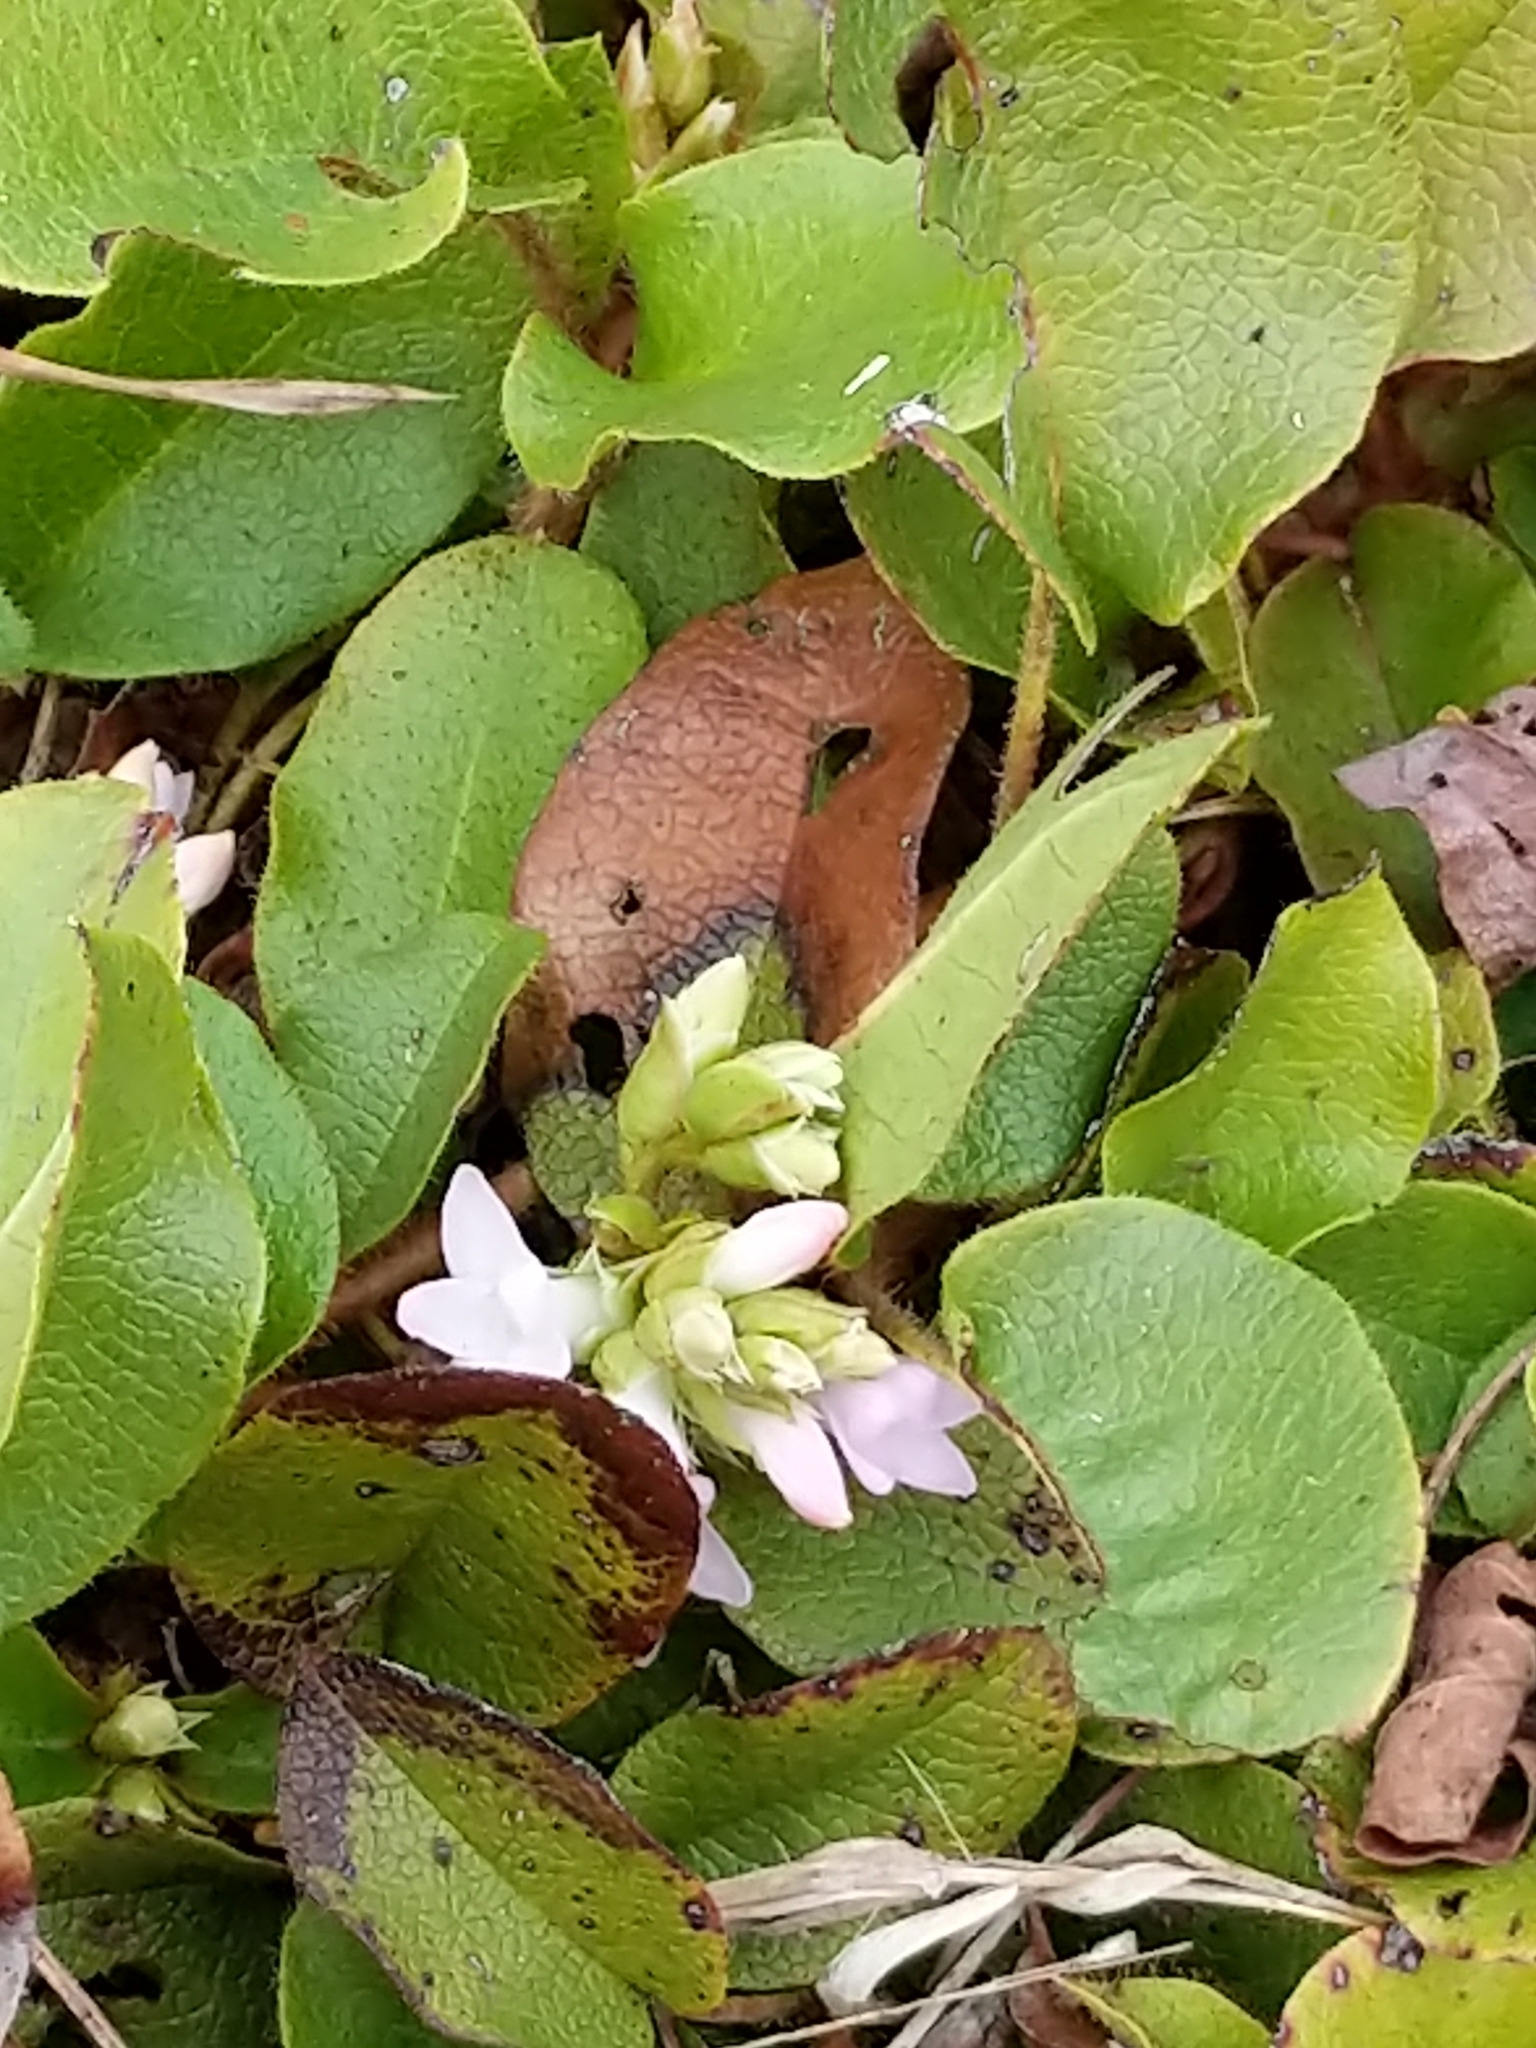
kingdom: Plantae
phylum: Tracheophyta
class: Magnoliopsida
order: Ericales
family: Ericaceae
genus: Epigaea
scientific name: Epigaea repens
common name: Gravelroot
